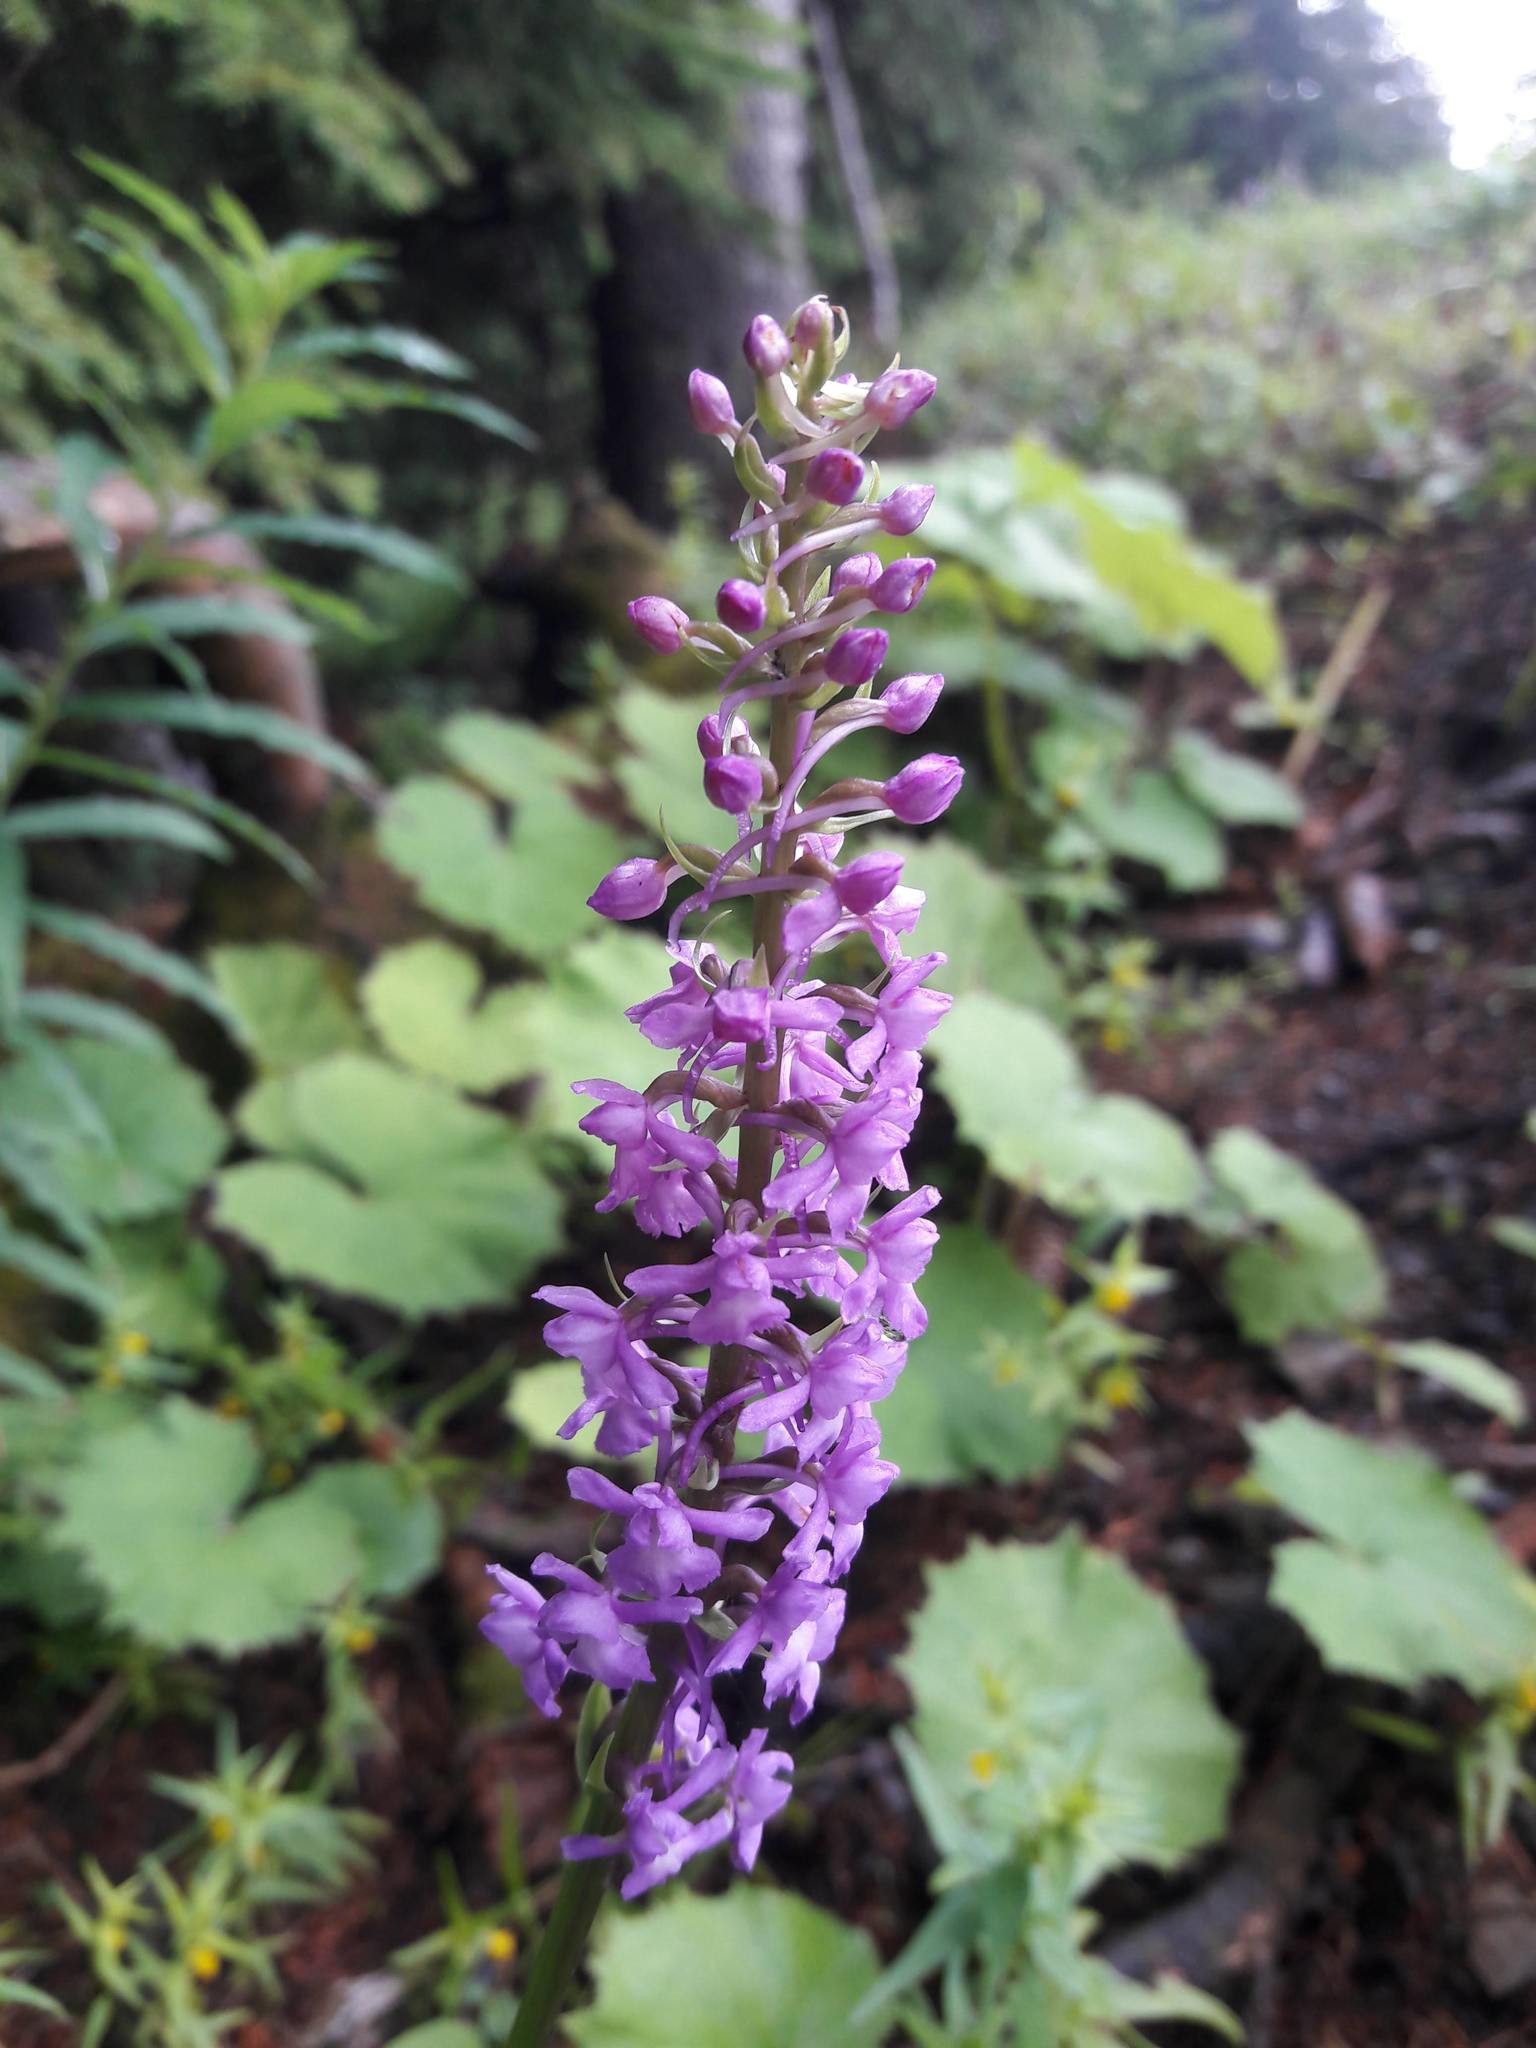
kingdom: Plantae
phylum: Tracheophyta
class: Liliopsida
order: Asparagales
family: Orchidaceae
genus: Gymnadenia
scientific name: Gymnadenia conopsea
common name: Fragrant orchid
